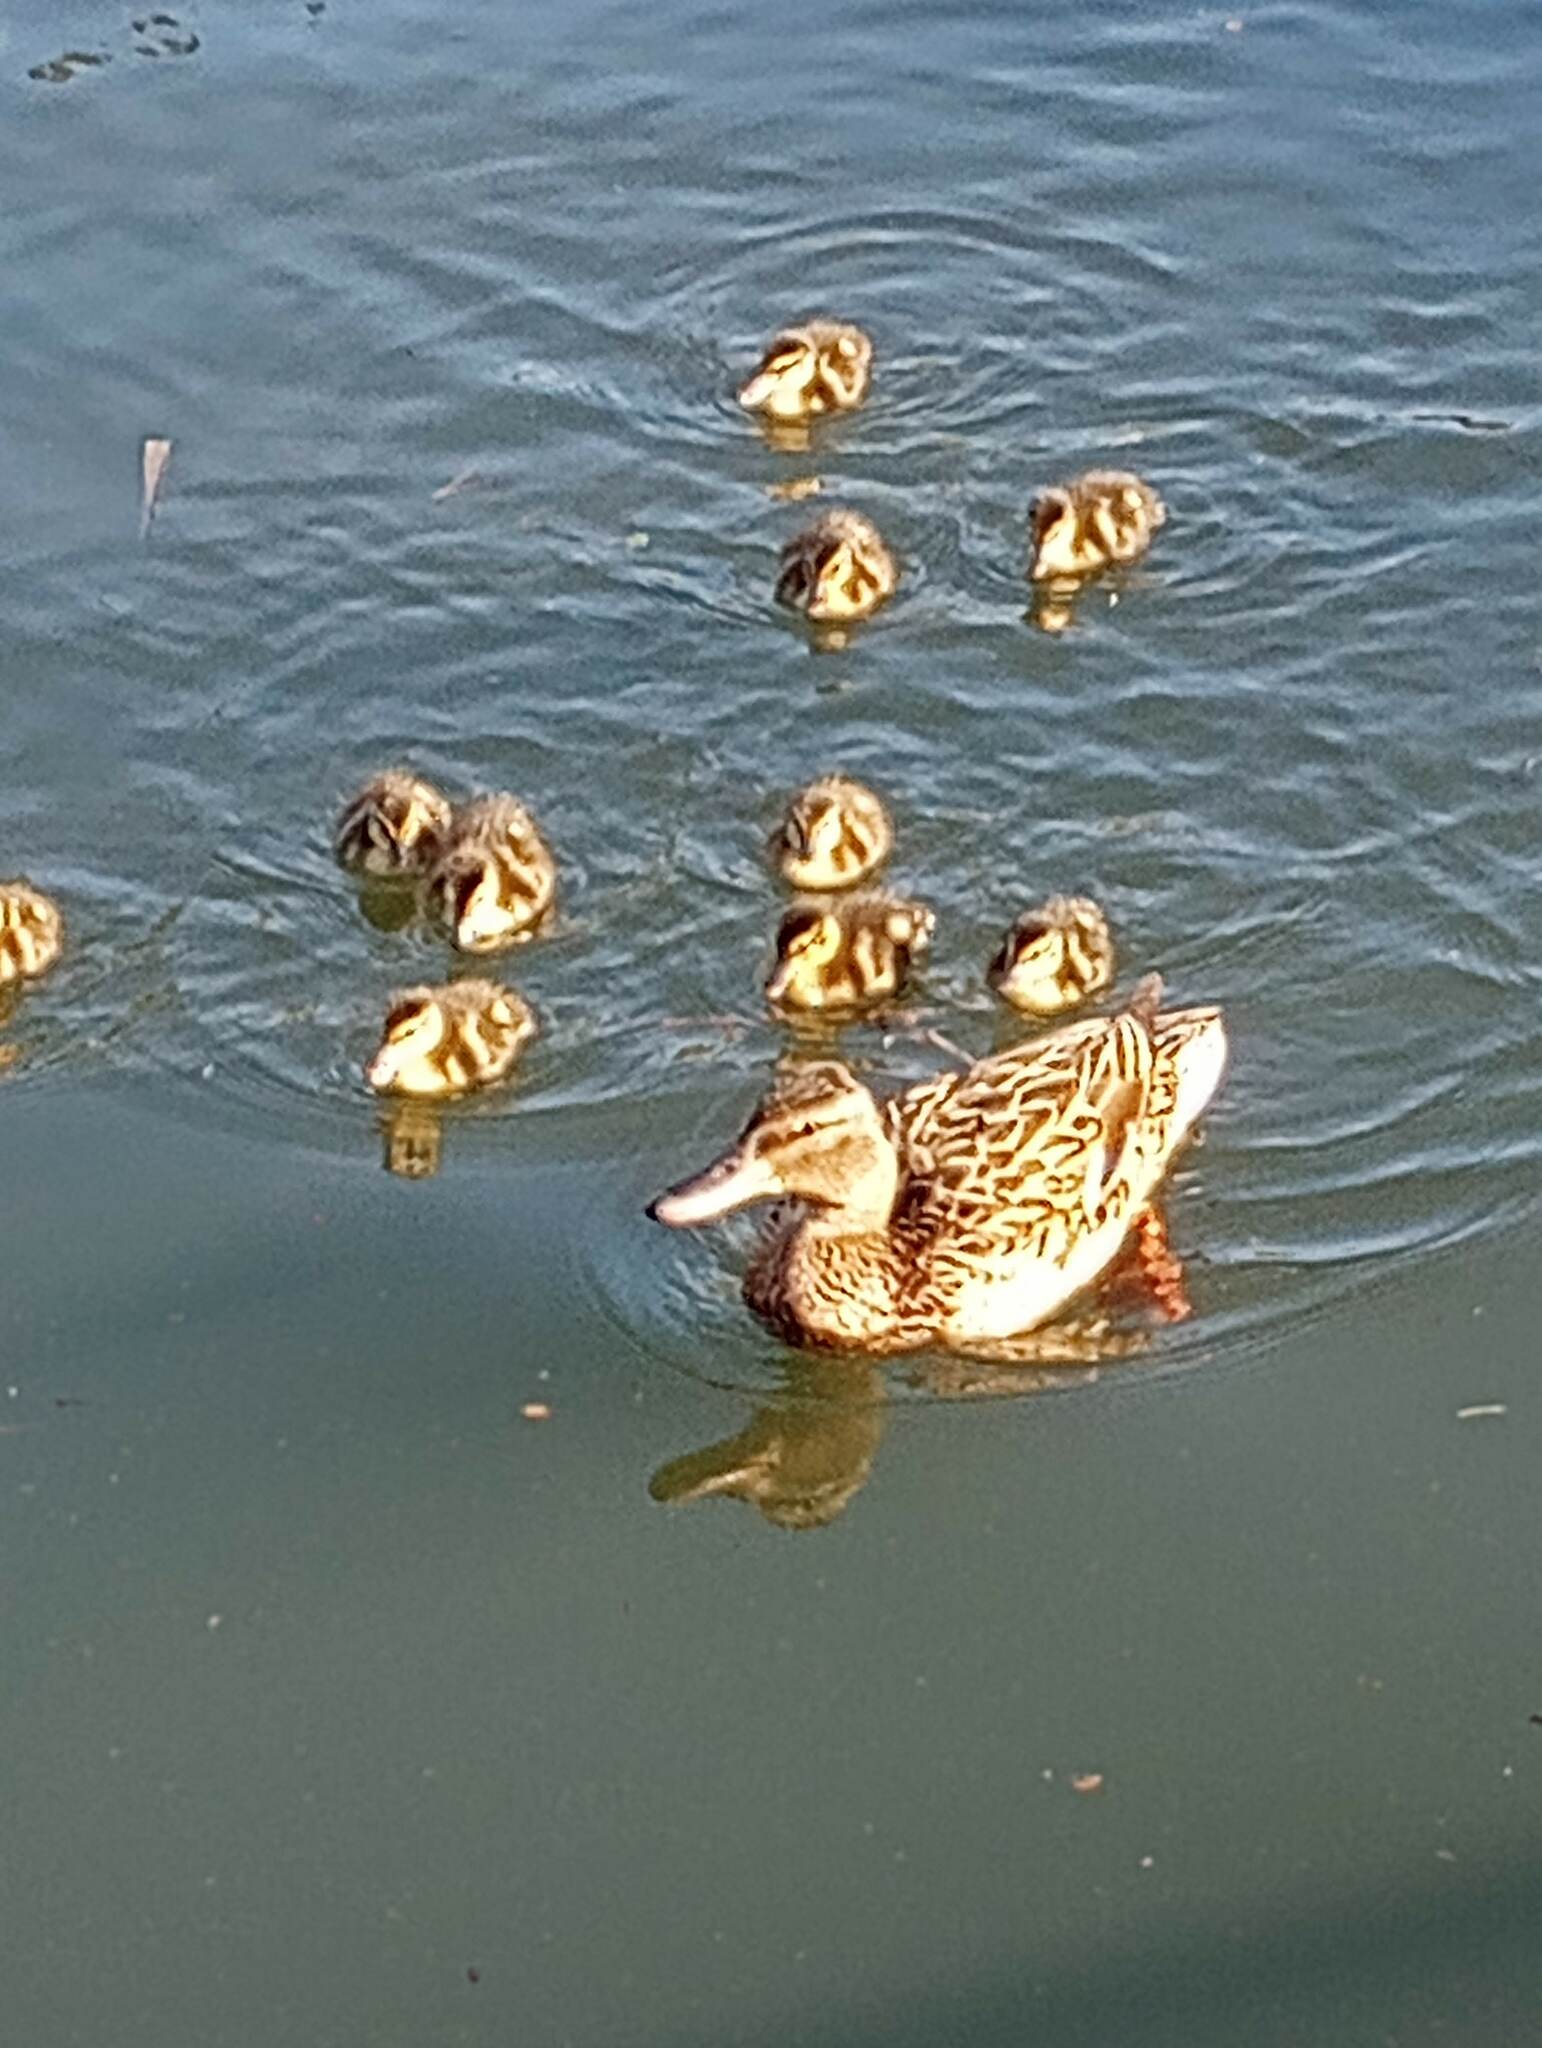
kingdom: Animalia
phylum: Chordata
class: Aves
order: Anseriformes
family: Anatidae
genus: Anas
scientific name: Anas platyrhynchos
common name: Mallard
